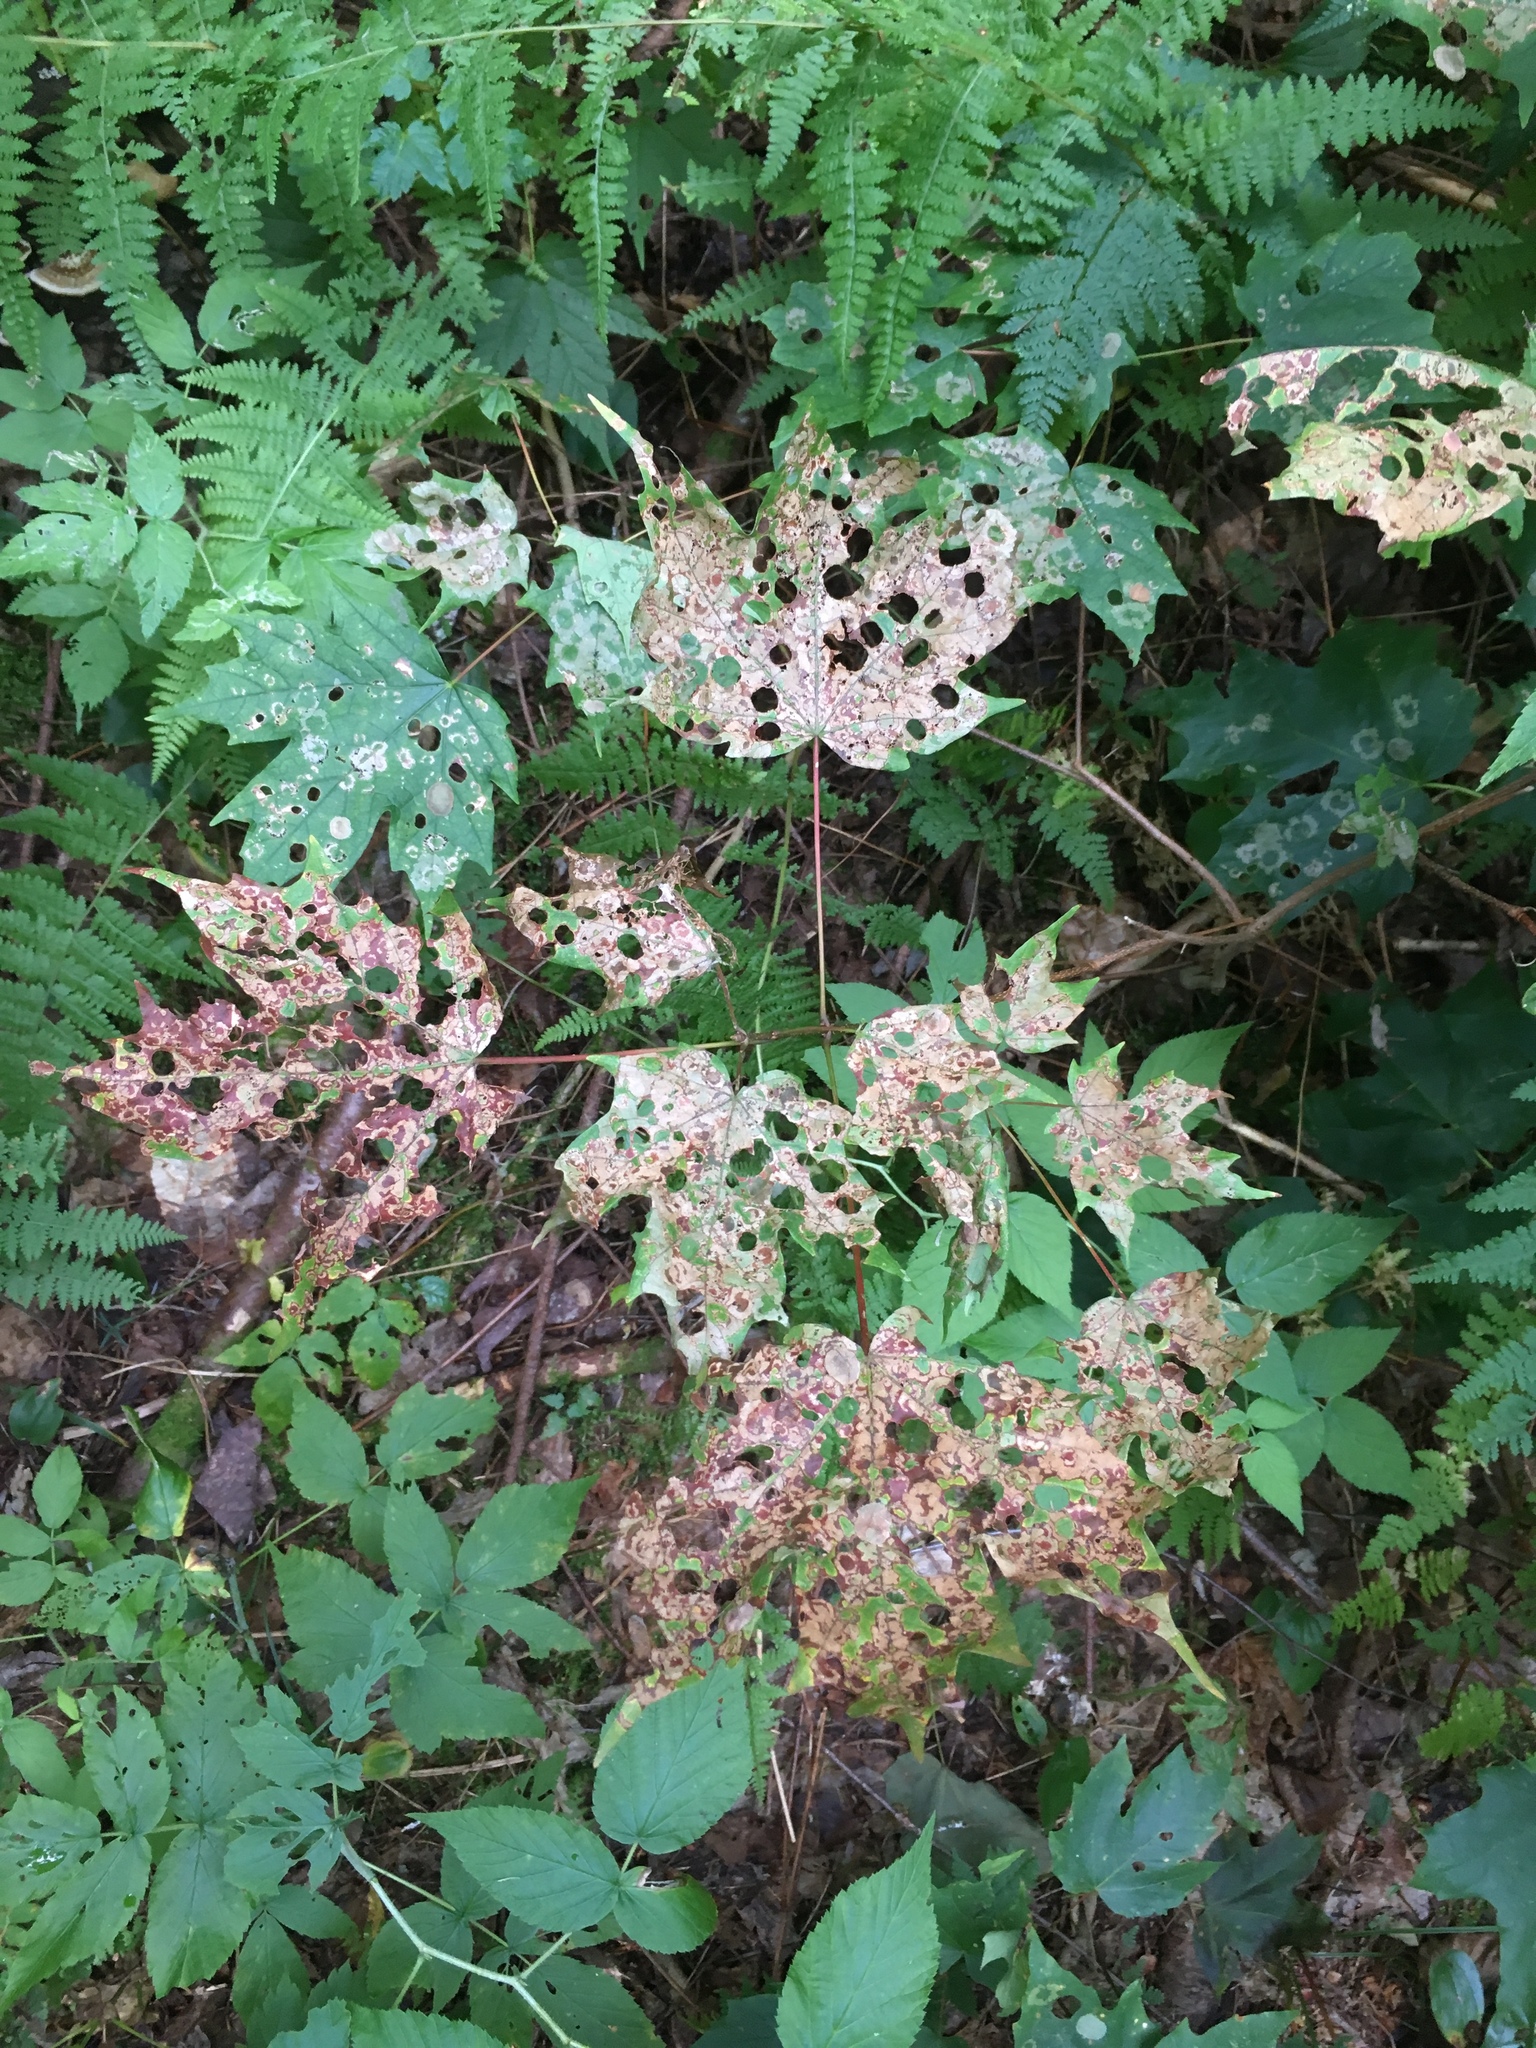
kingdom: Animalia
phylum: Arthropoda
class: Insecta
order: Lepidoptera
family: Incurvariidae
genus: Paraclemensia
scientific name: Paraclemensia acerifoliella
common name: Maple leafcutter
